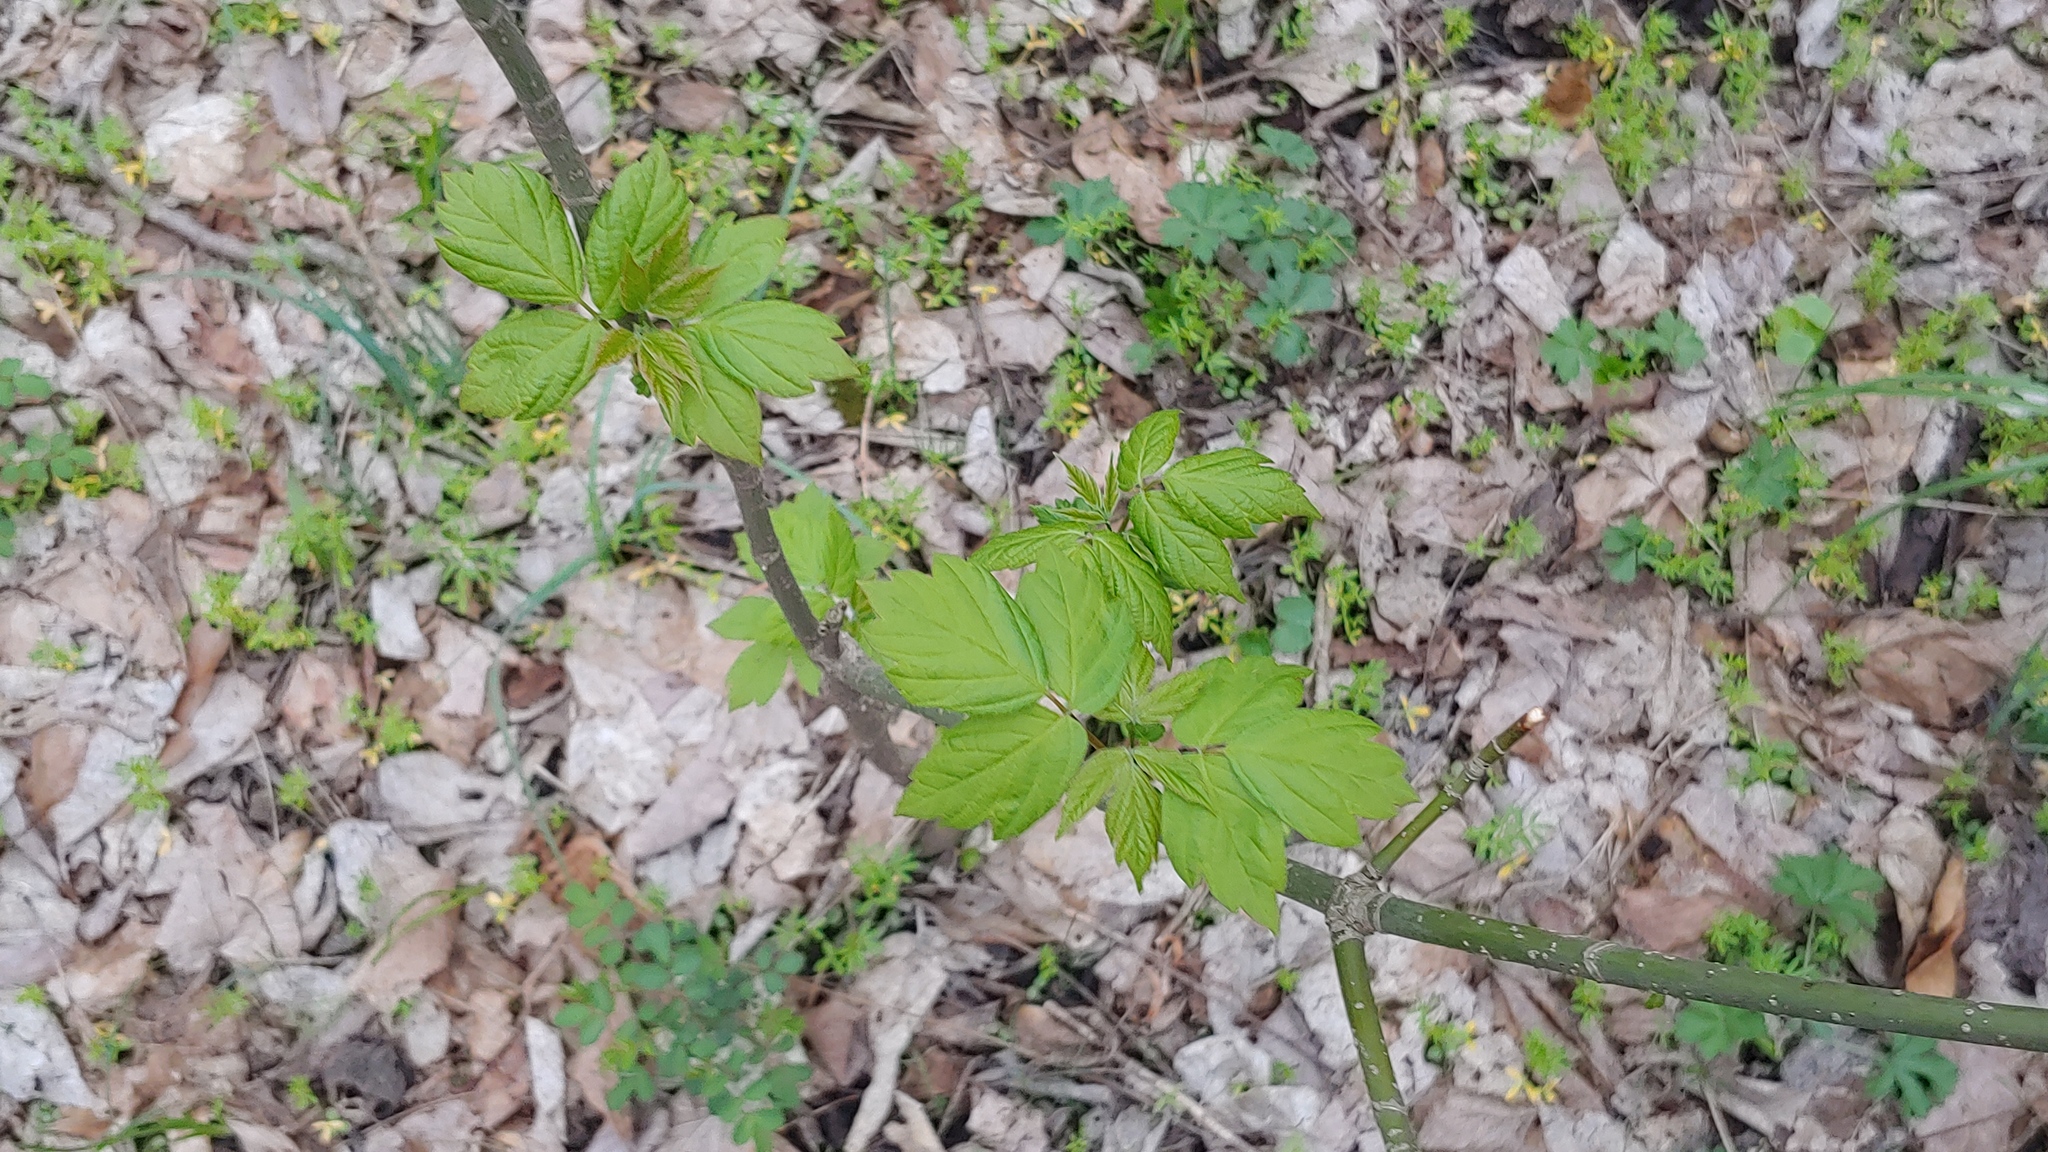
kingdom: Plantae
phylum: Tracheophyta
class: Magnoliopsida
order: Sapindales
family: Sapindaceae
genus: Acer
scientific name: Acer negundo
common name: Ashleaf maple
